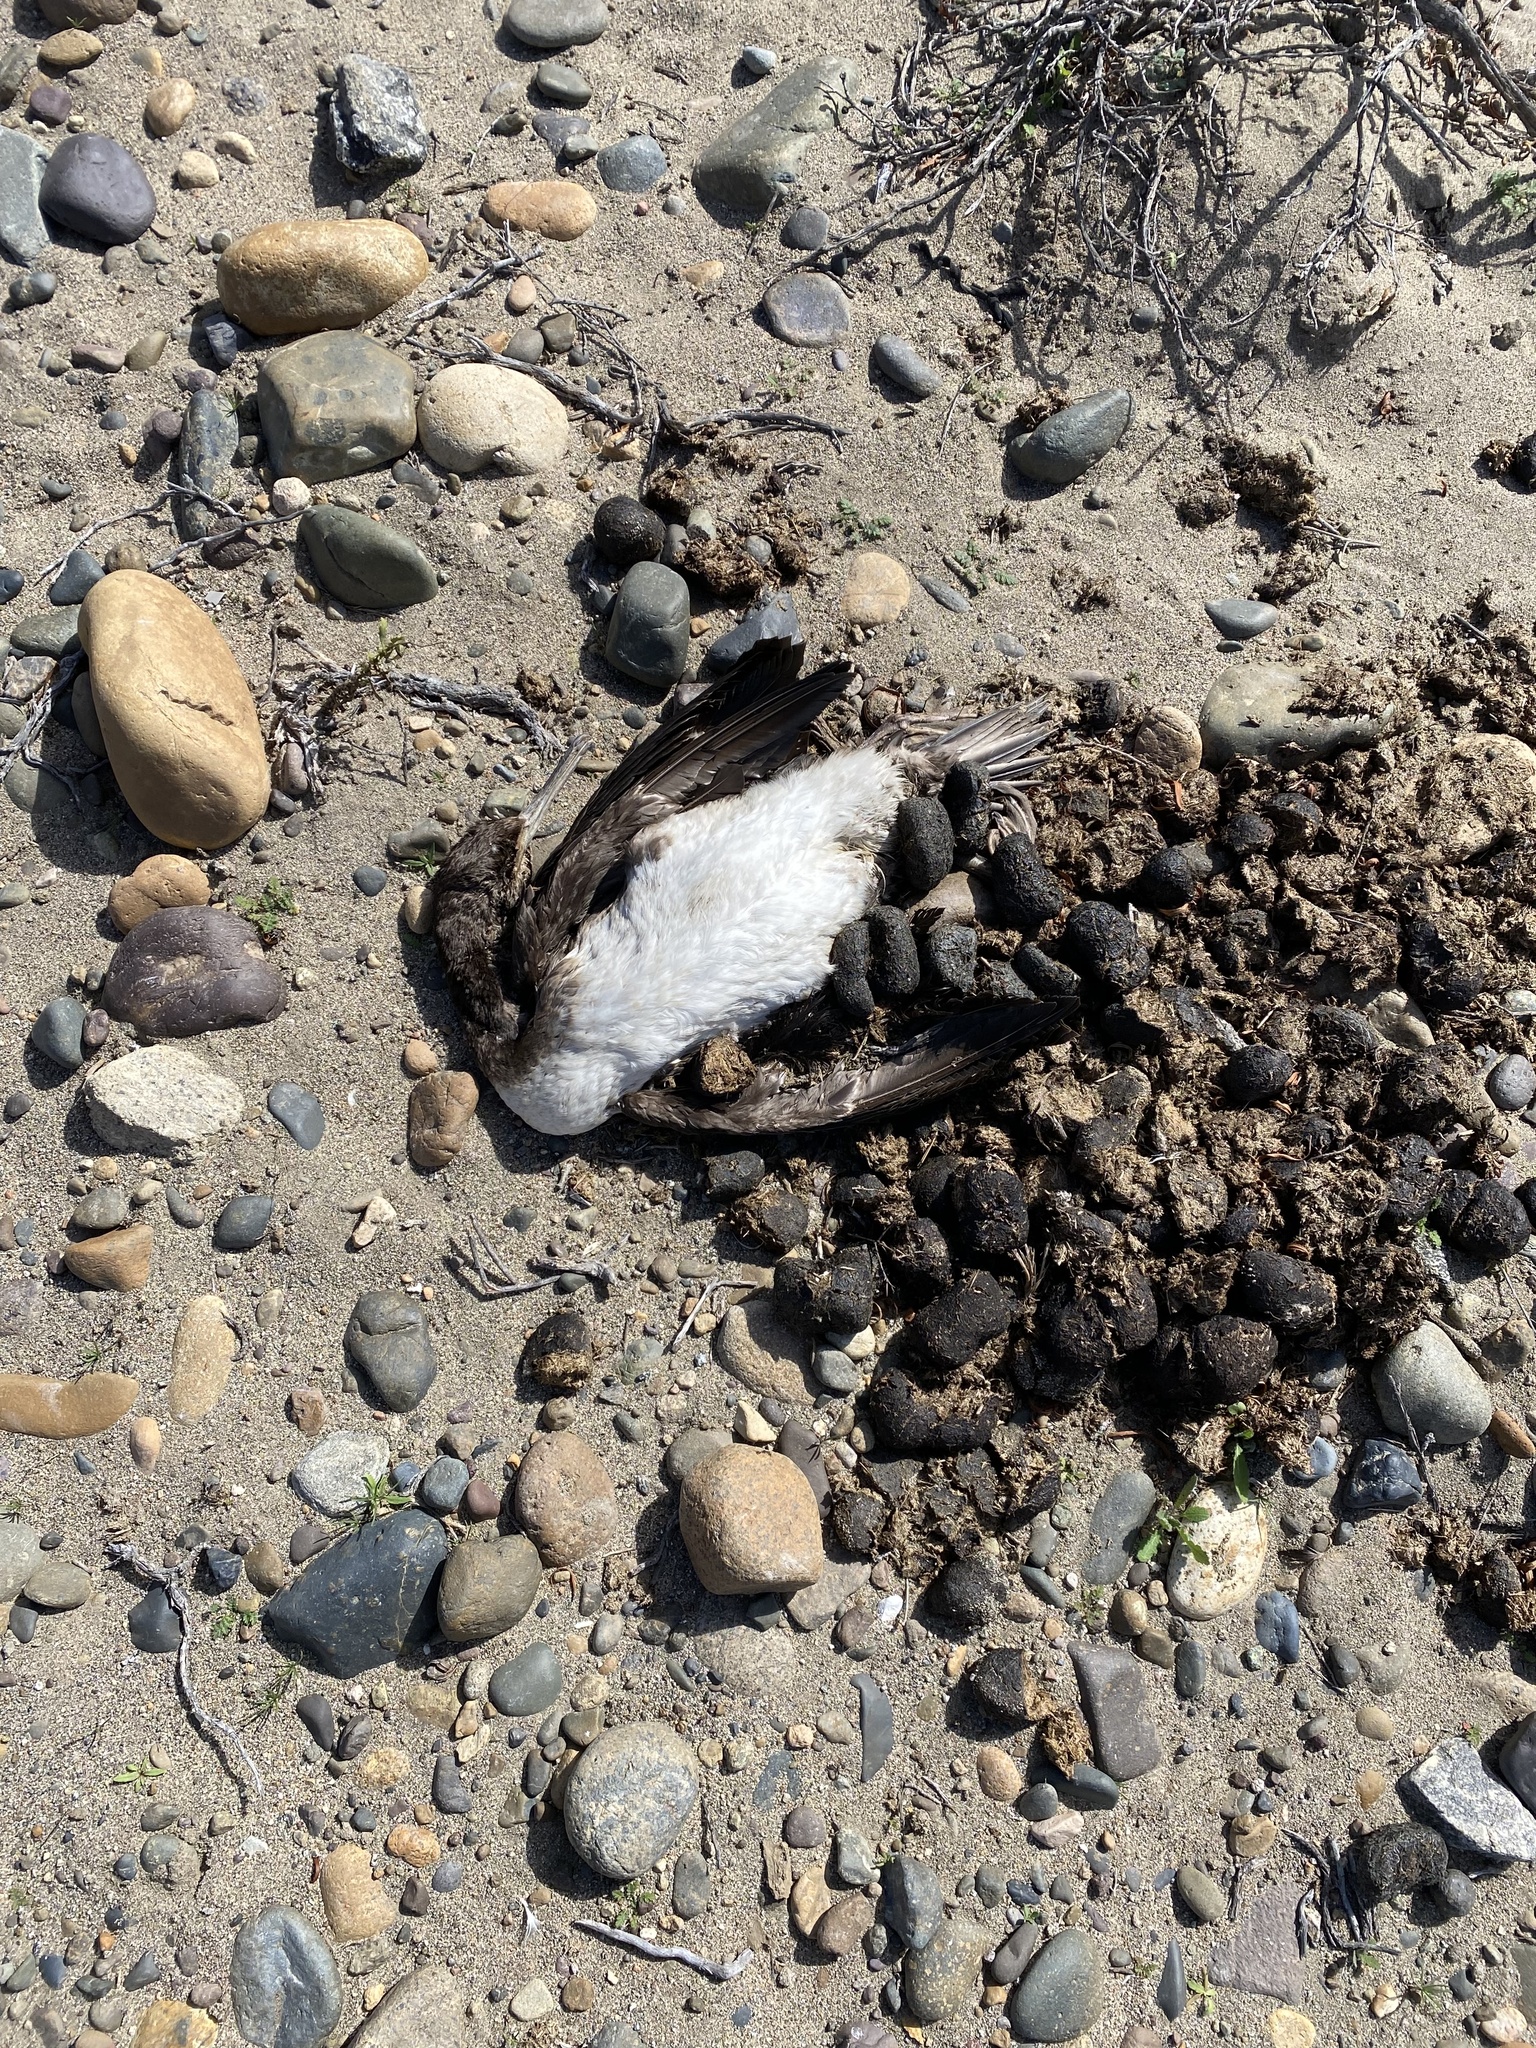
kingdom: Animalia
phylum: Chordata
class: Aves
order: Suliformes
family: Phalacrocoracidae
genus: Leucocarbo
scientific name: Leucocarbo bougainvillii
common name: Guanay cormorant
